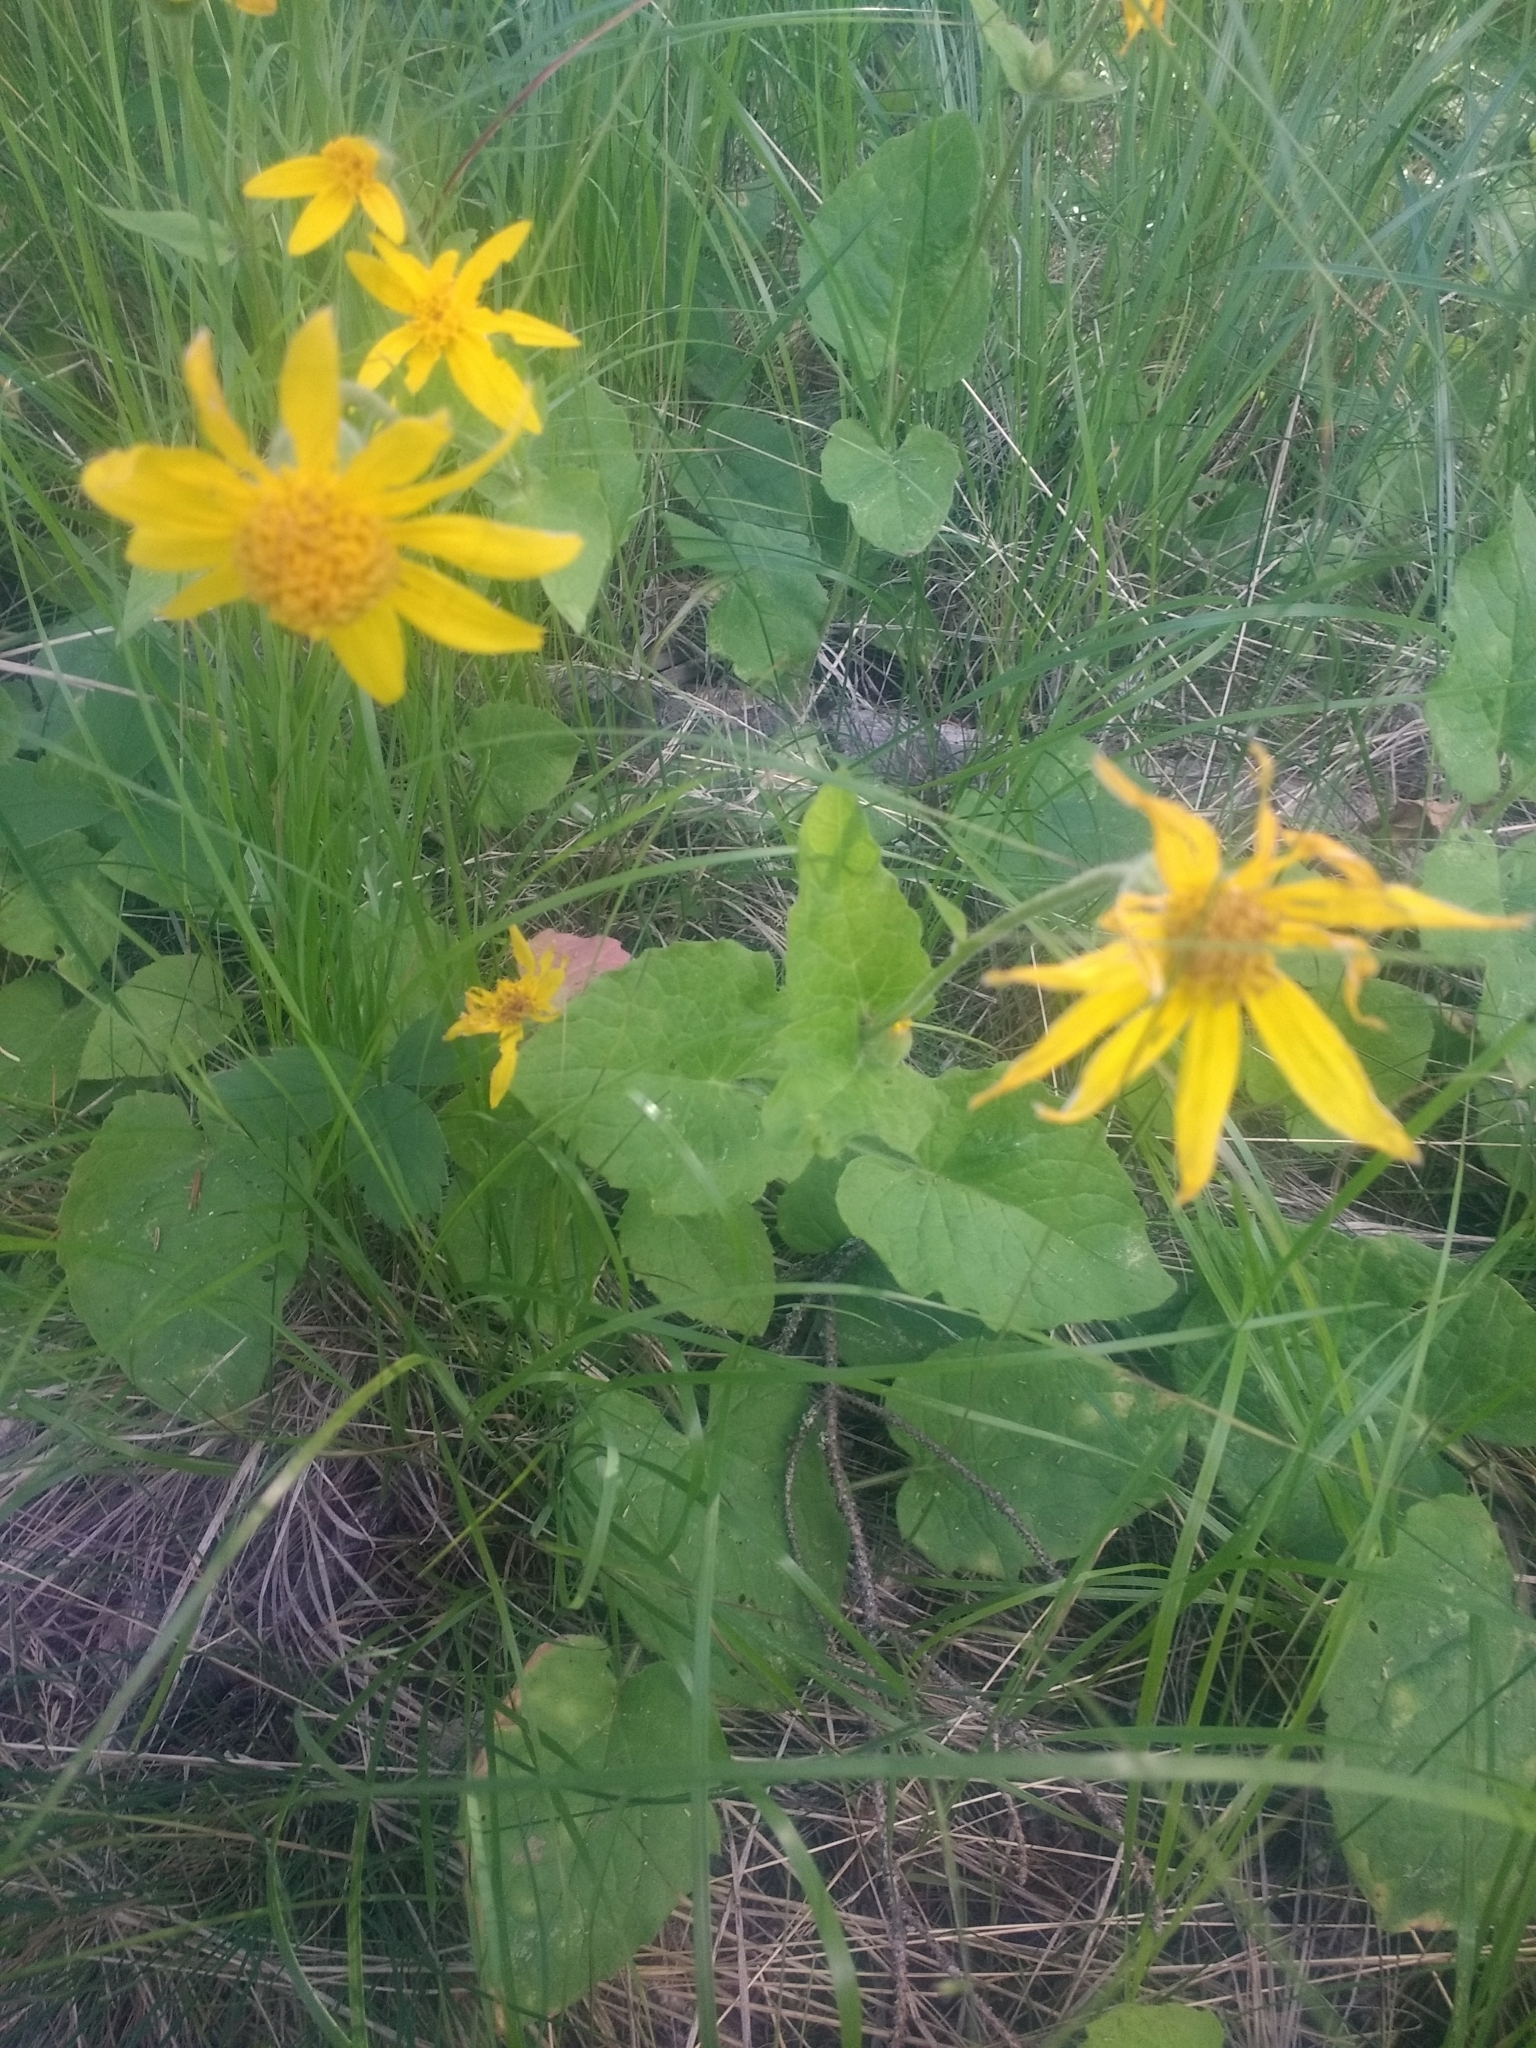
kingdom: Plantae
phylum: Tracheophyta
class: Magnoliopsida
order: Asterales
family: Asteraceae
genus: Arnica
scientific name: Arnica cordifolia
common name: Heart-leaf arnica
